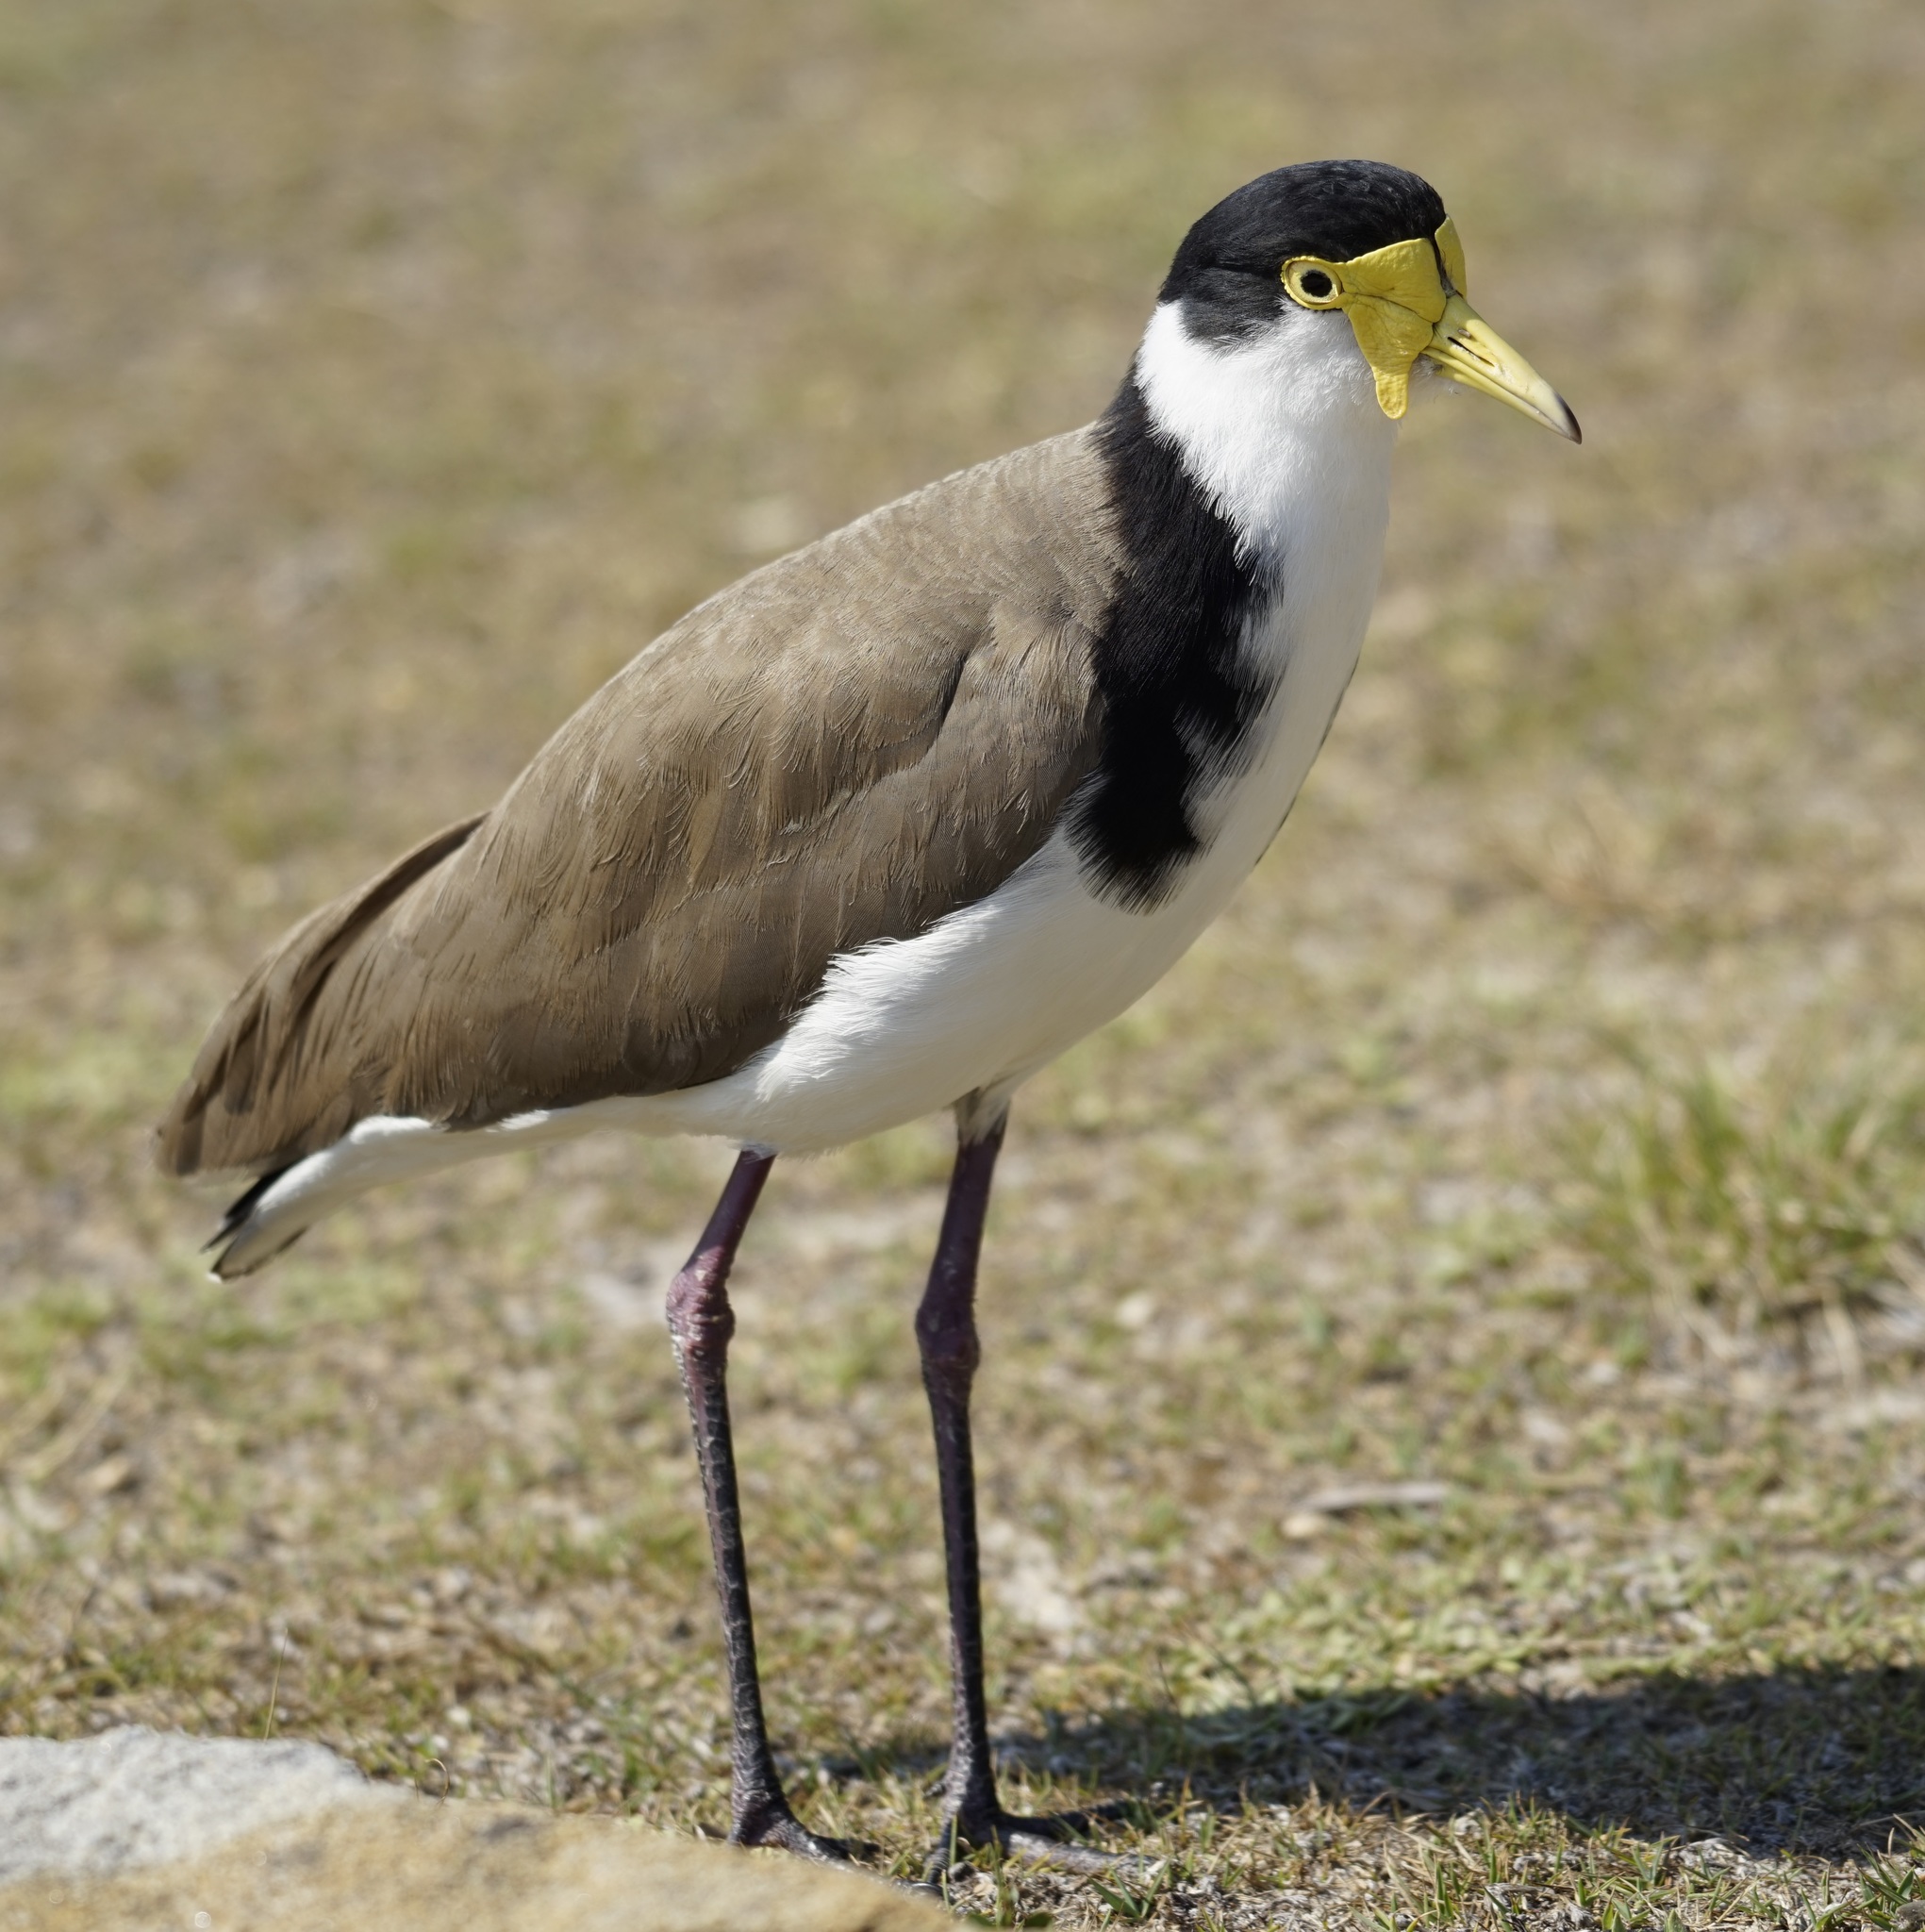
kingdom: Animalia
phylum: Chordata
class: Aves
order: Charadriiformes
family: Charadriidae
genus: Vanellus
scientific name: Vanellus miles
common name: Masked lapwing
